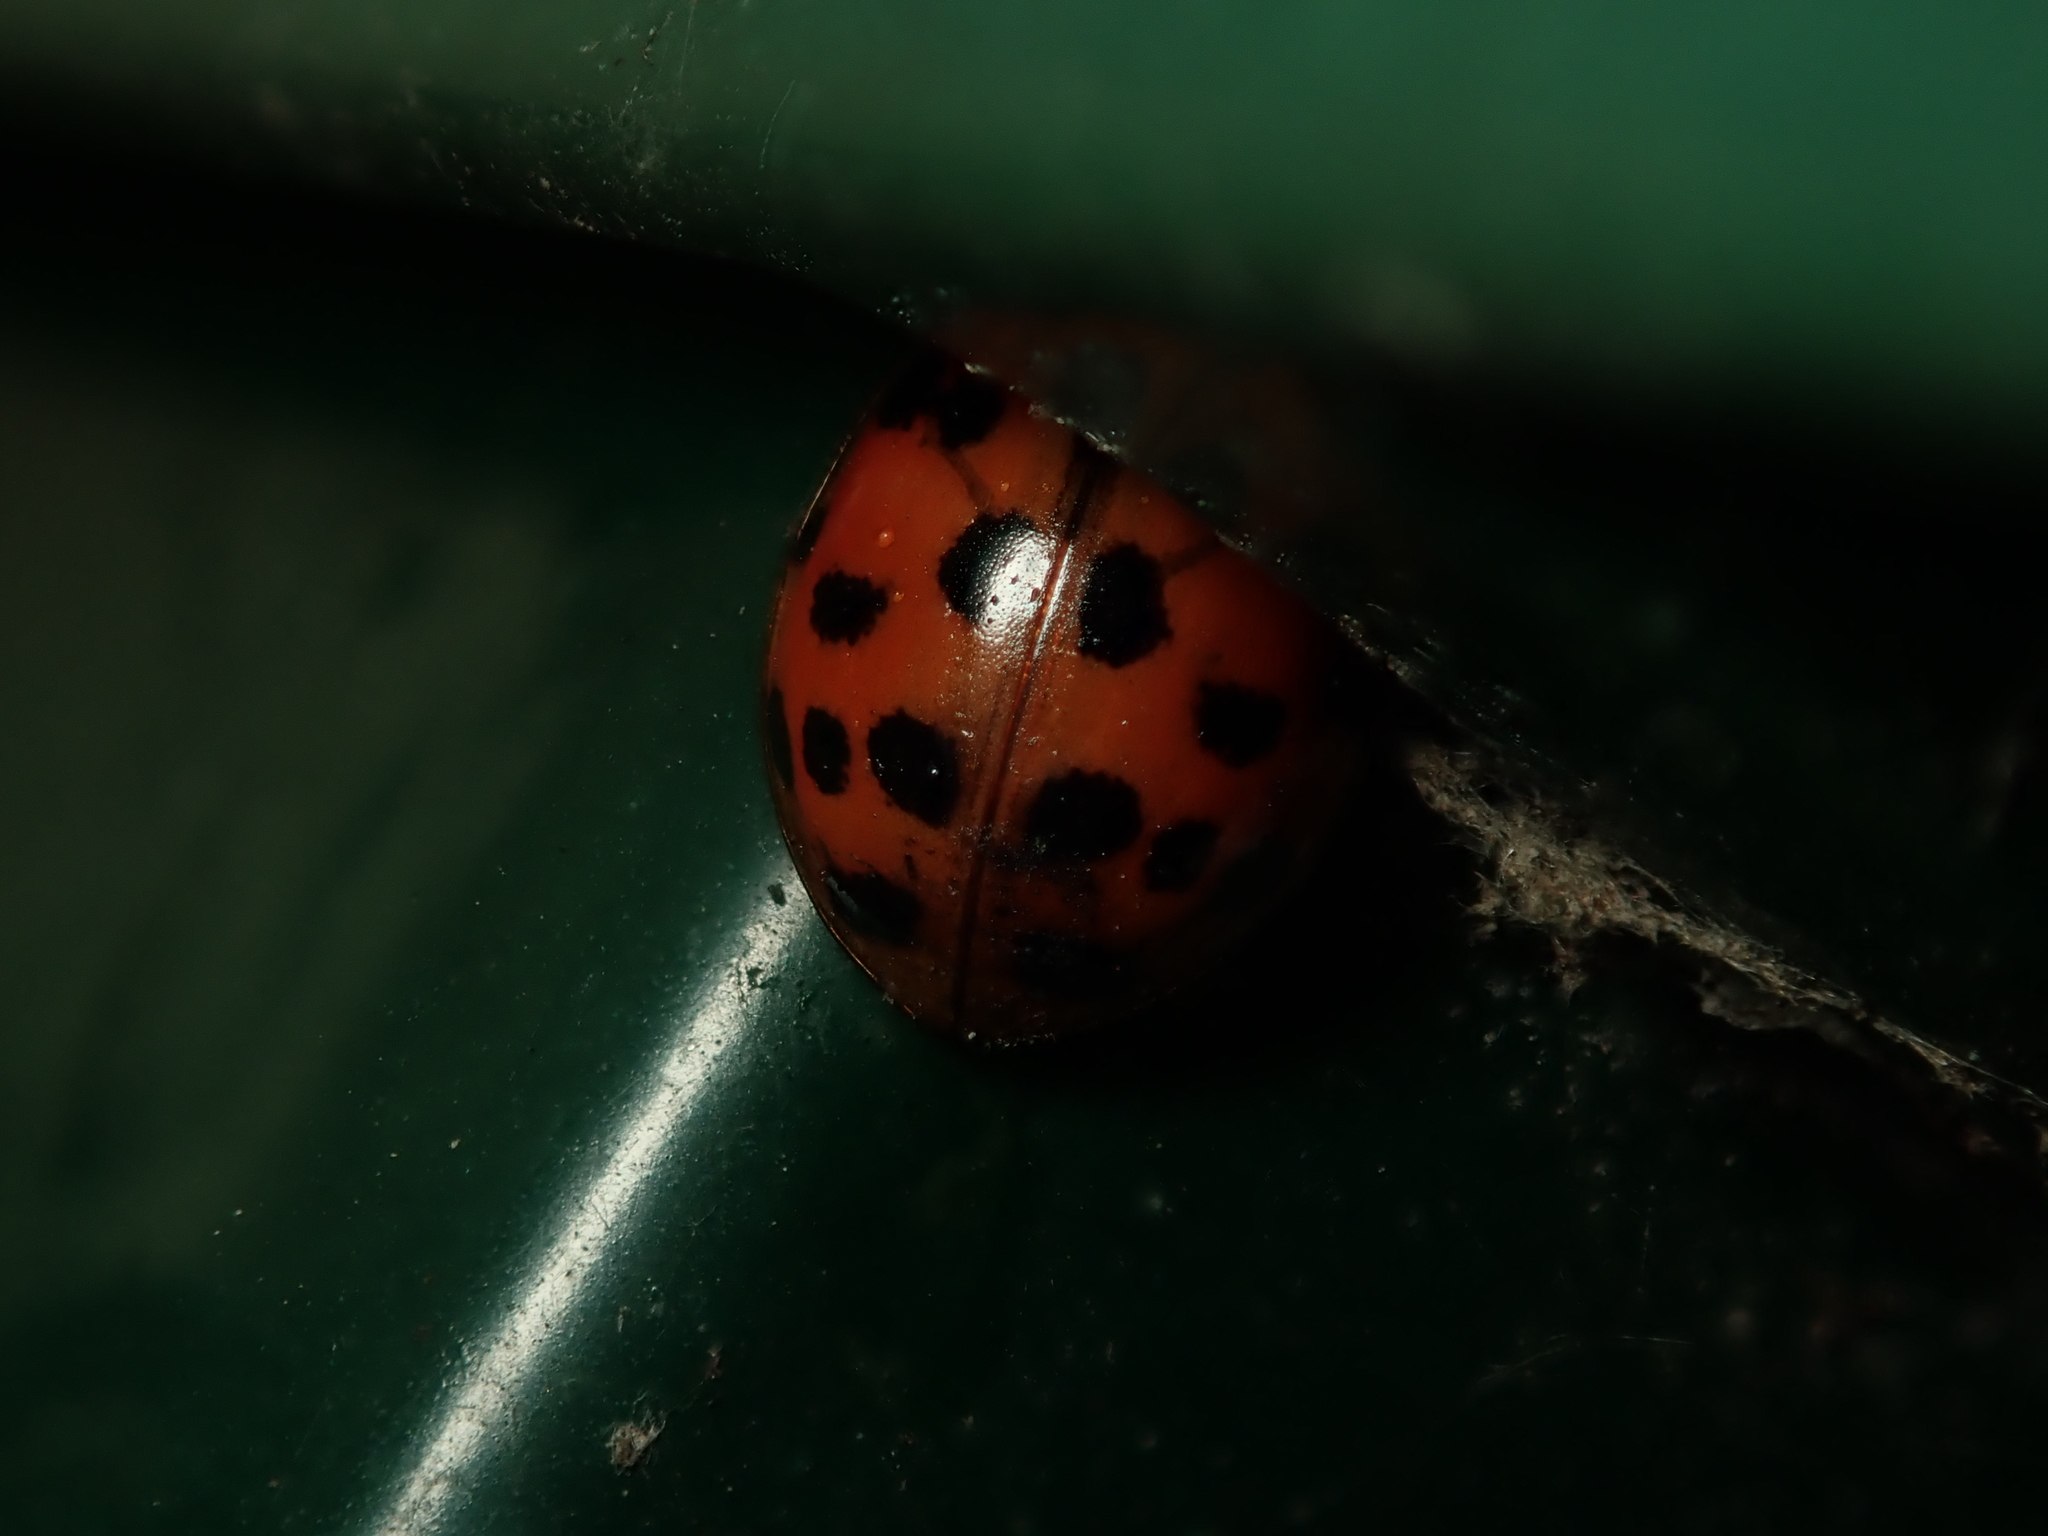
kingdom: Animalia
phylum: Arthropoda
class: Insecta
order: Coleoptera
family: Coccinellidae
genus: Harmonia
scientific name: Harmonia axyridis
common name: Harlequin ladybird
